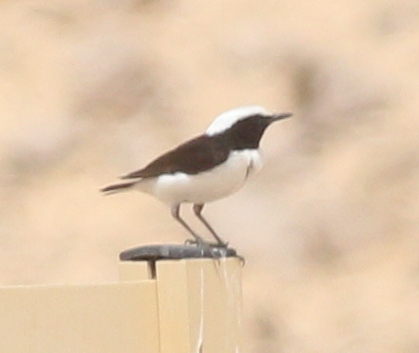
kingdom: Animalia
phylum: Chordata
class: Aves
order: Passeriformes
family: Muscicapidae
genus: Oenanthe
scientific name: Oenanthe lugens
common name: Mourning wheatear
